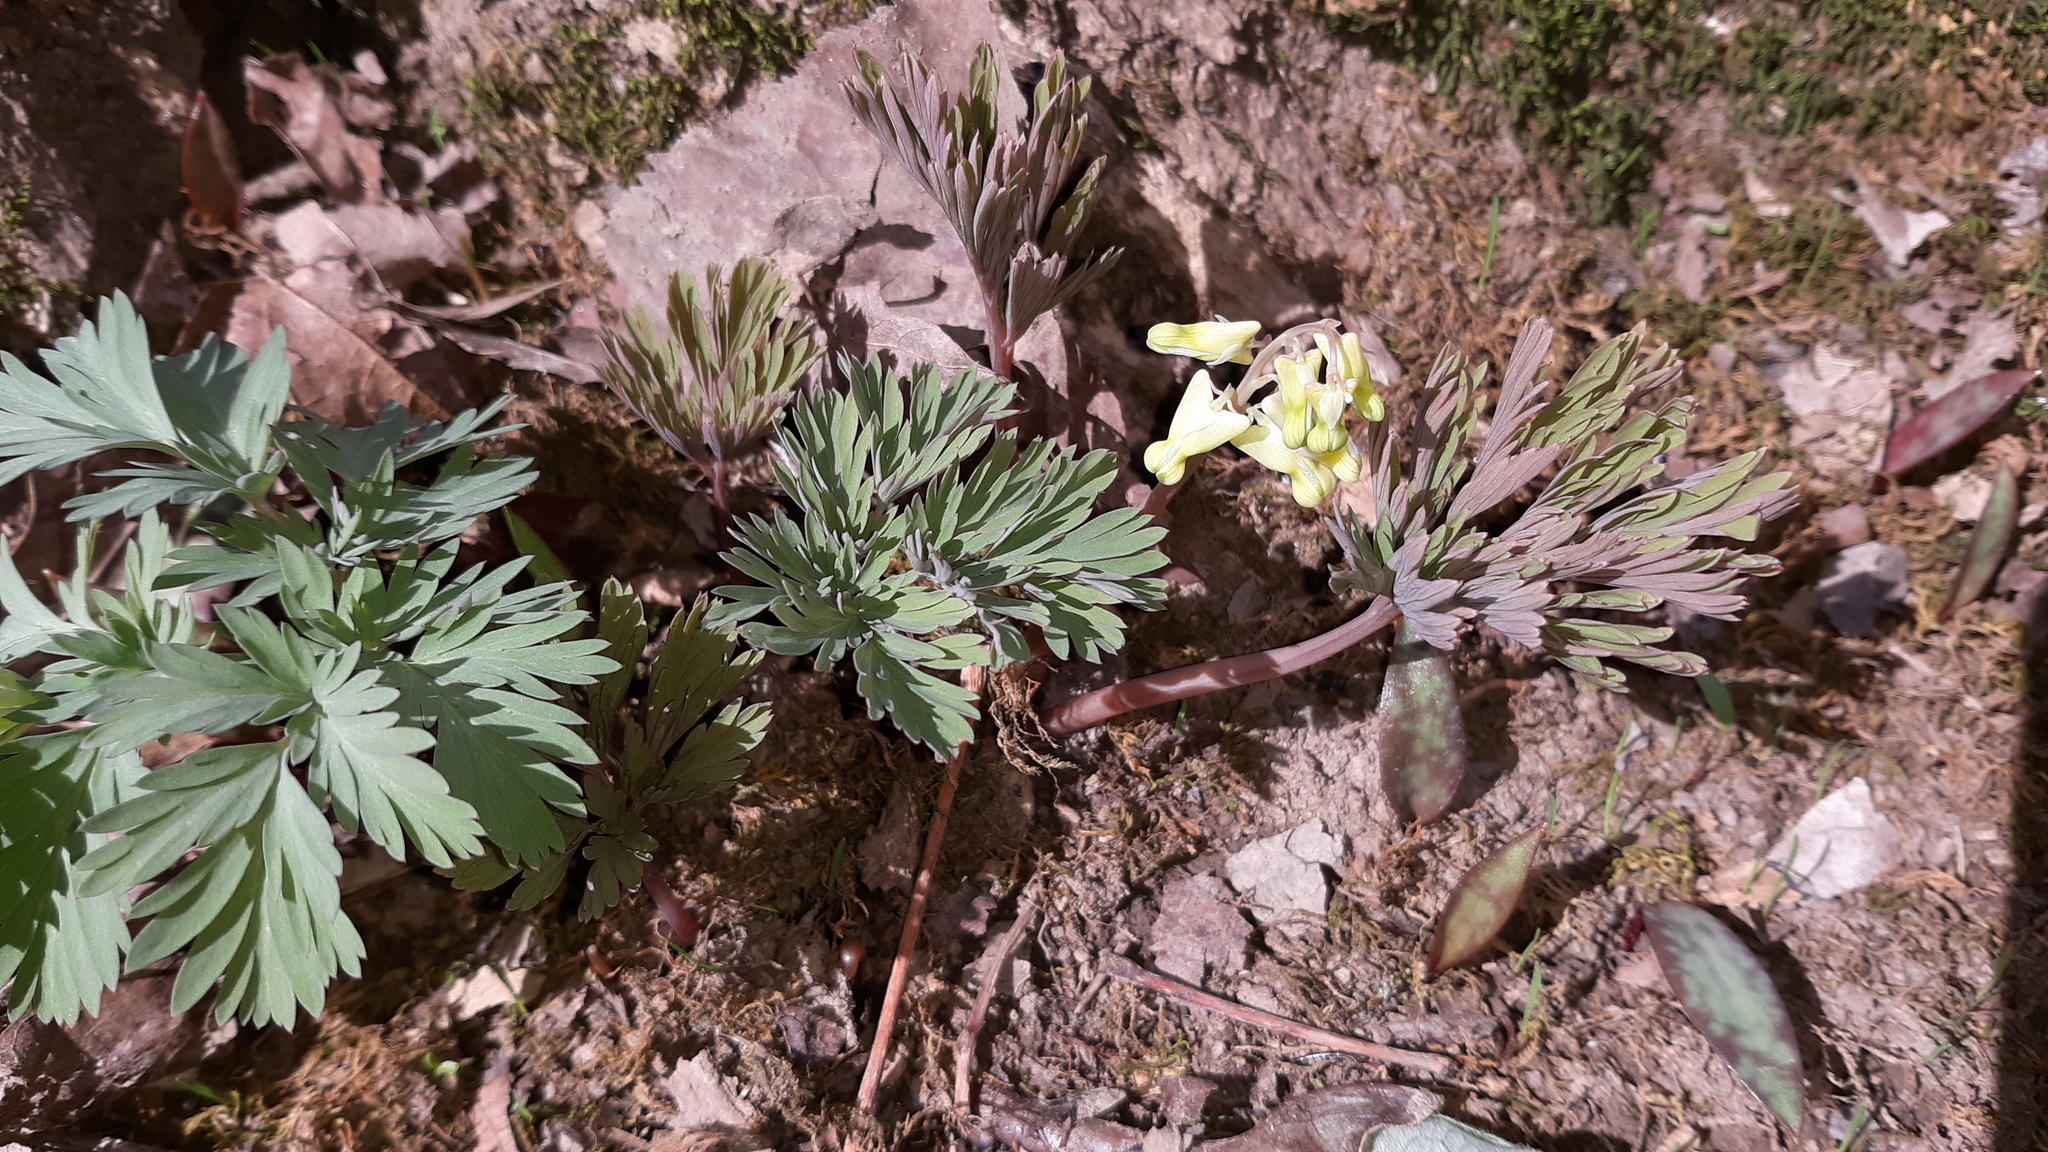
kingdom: Plantae
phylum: Tracheophyta
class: Magnoliopsida
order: Ranunculales
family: Papaveraceae
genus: Dicentra
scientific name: Dicentra cucullaria
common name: Dutchman's breeches
